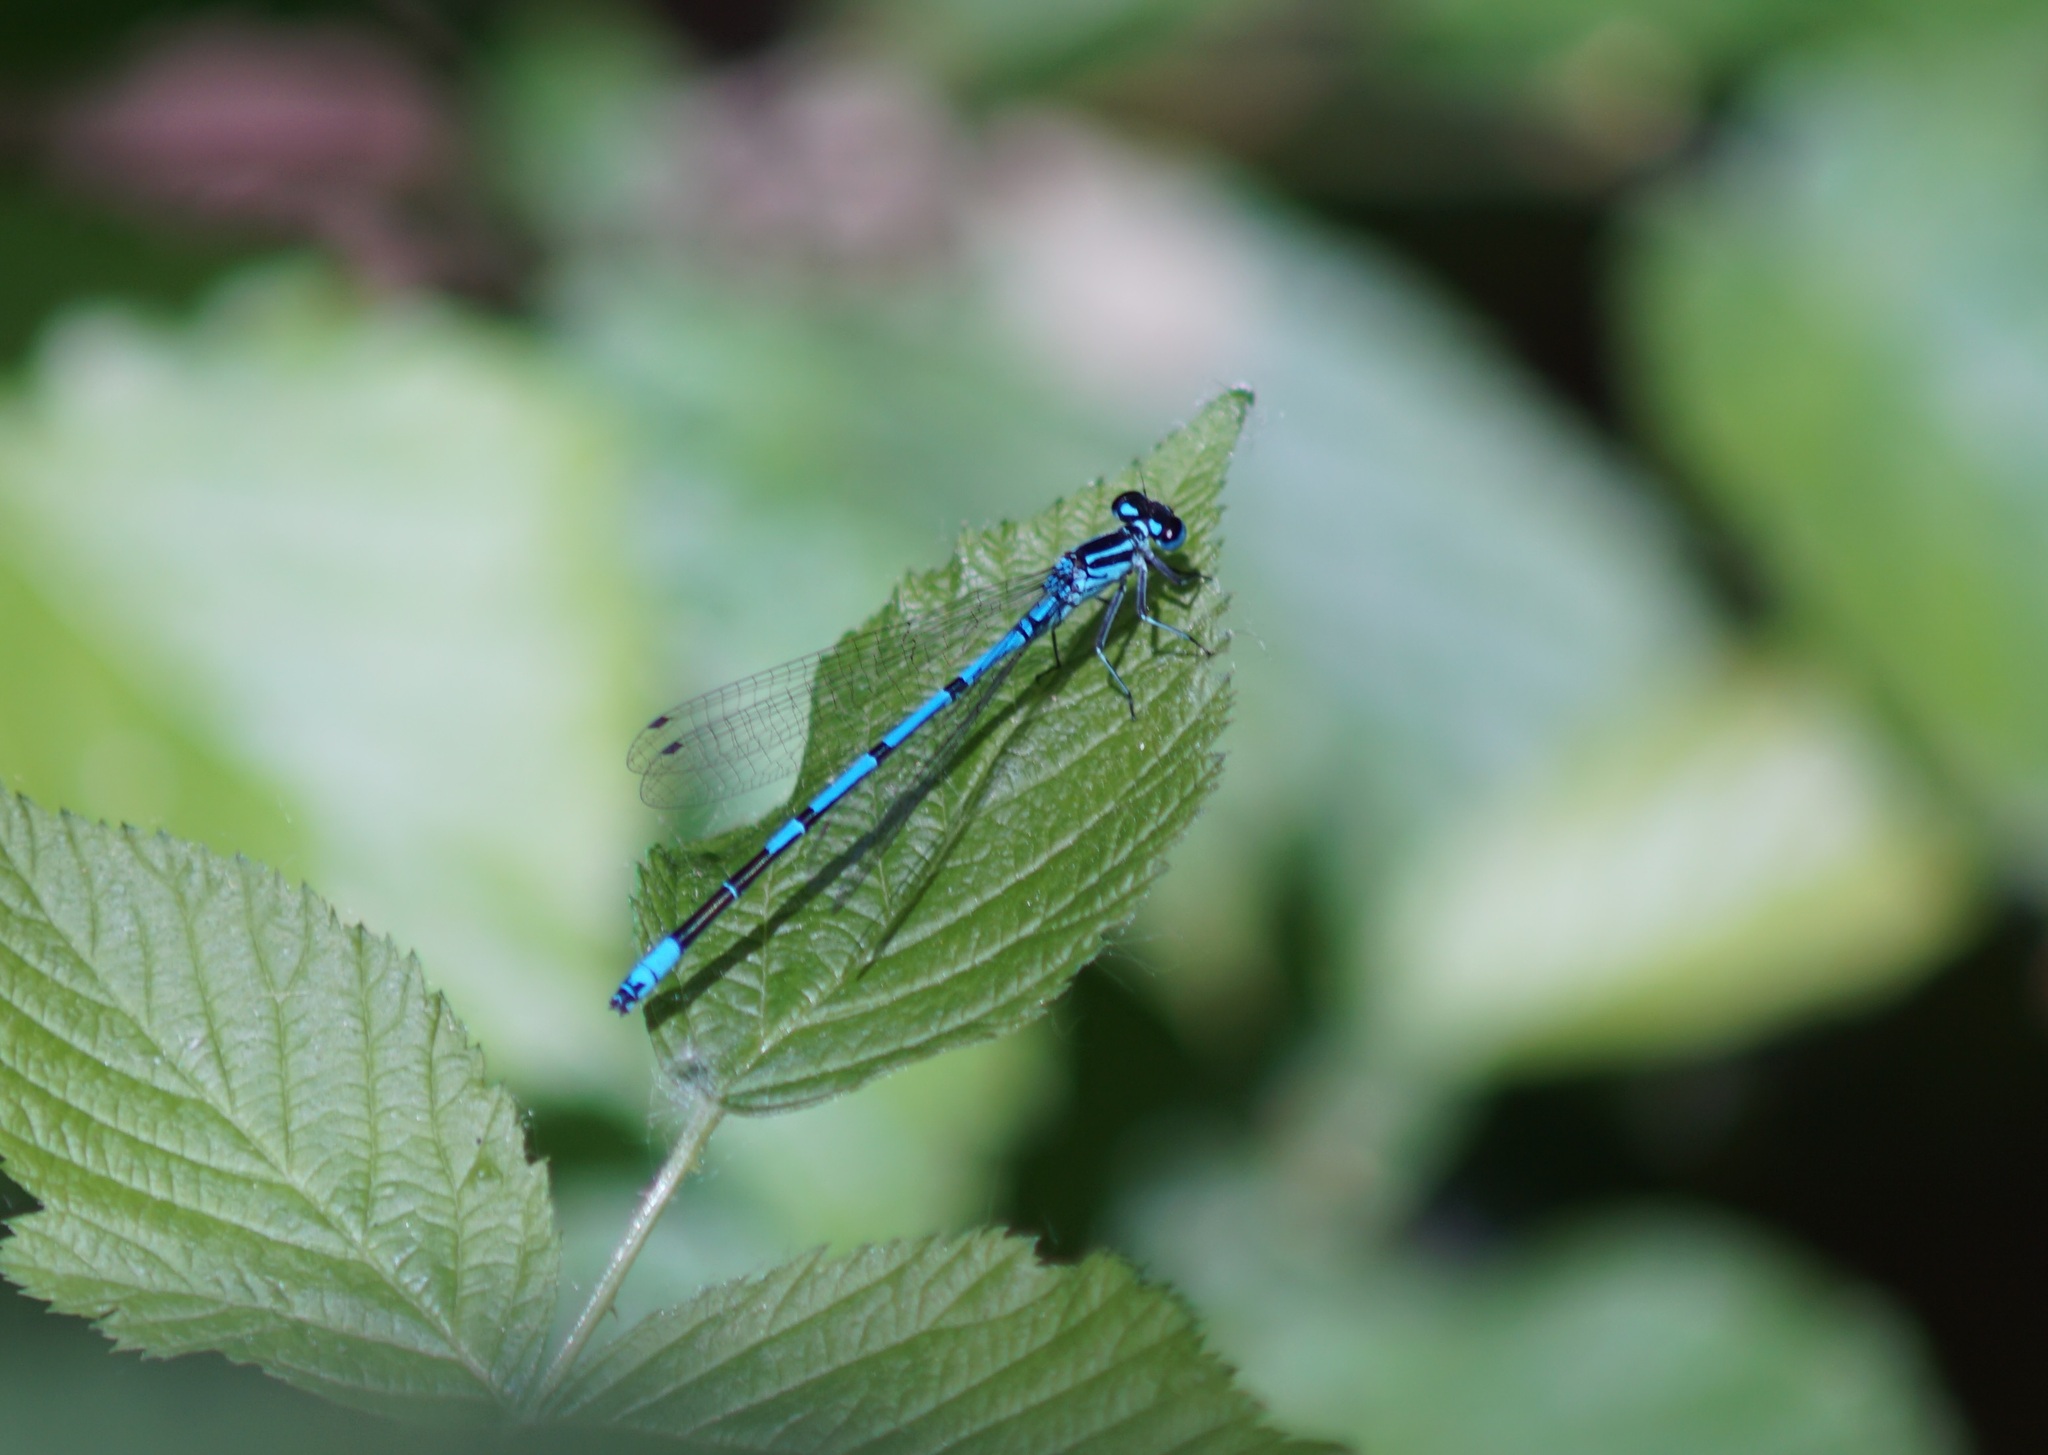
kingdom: Animalia
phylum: Arthropoda
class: Insecta
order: Odonata
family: Coenagrionidae
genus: Coenagrion
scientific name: Coenagrion puella
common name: Azure damselfly
